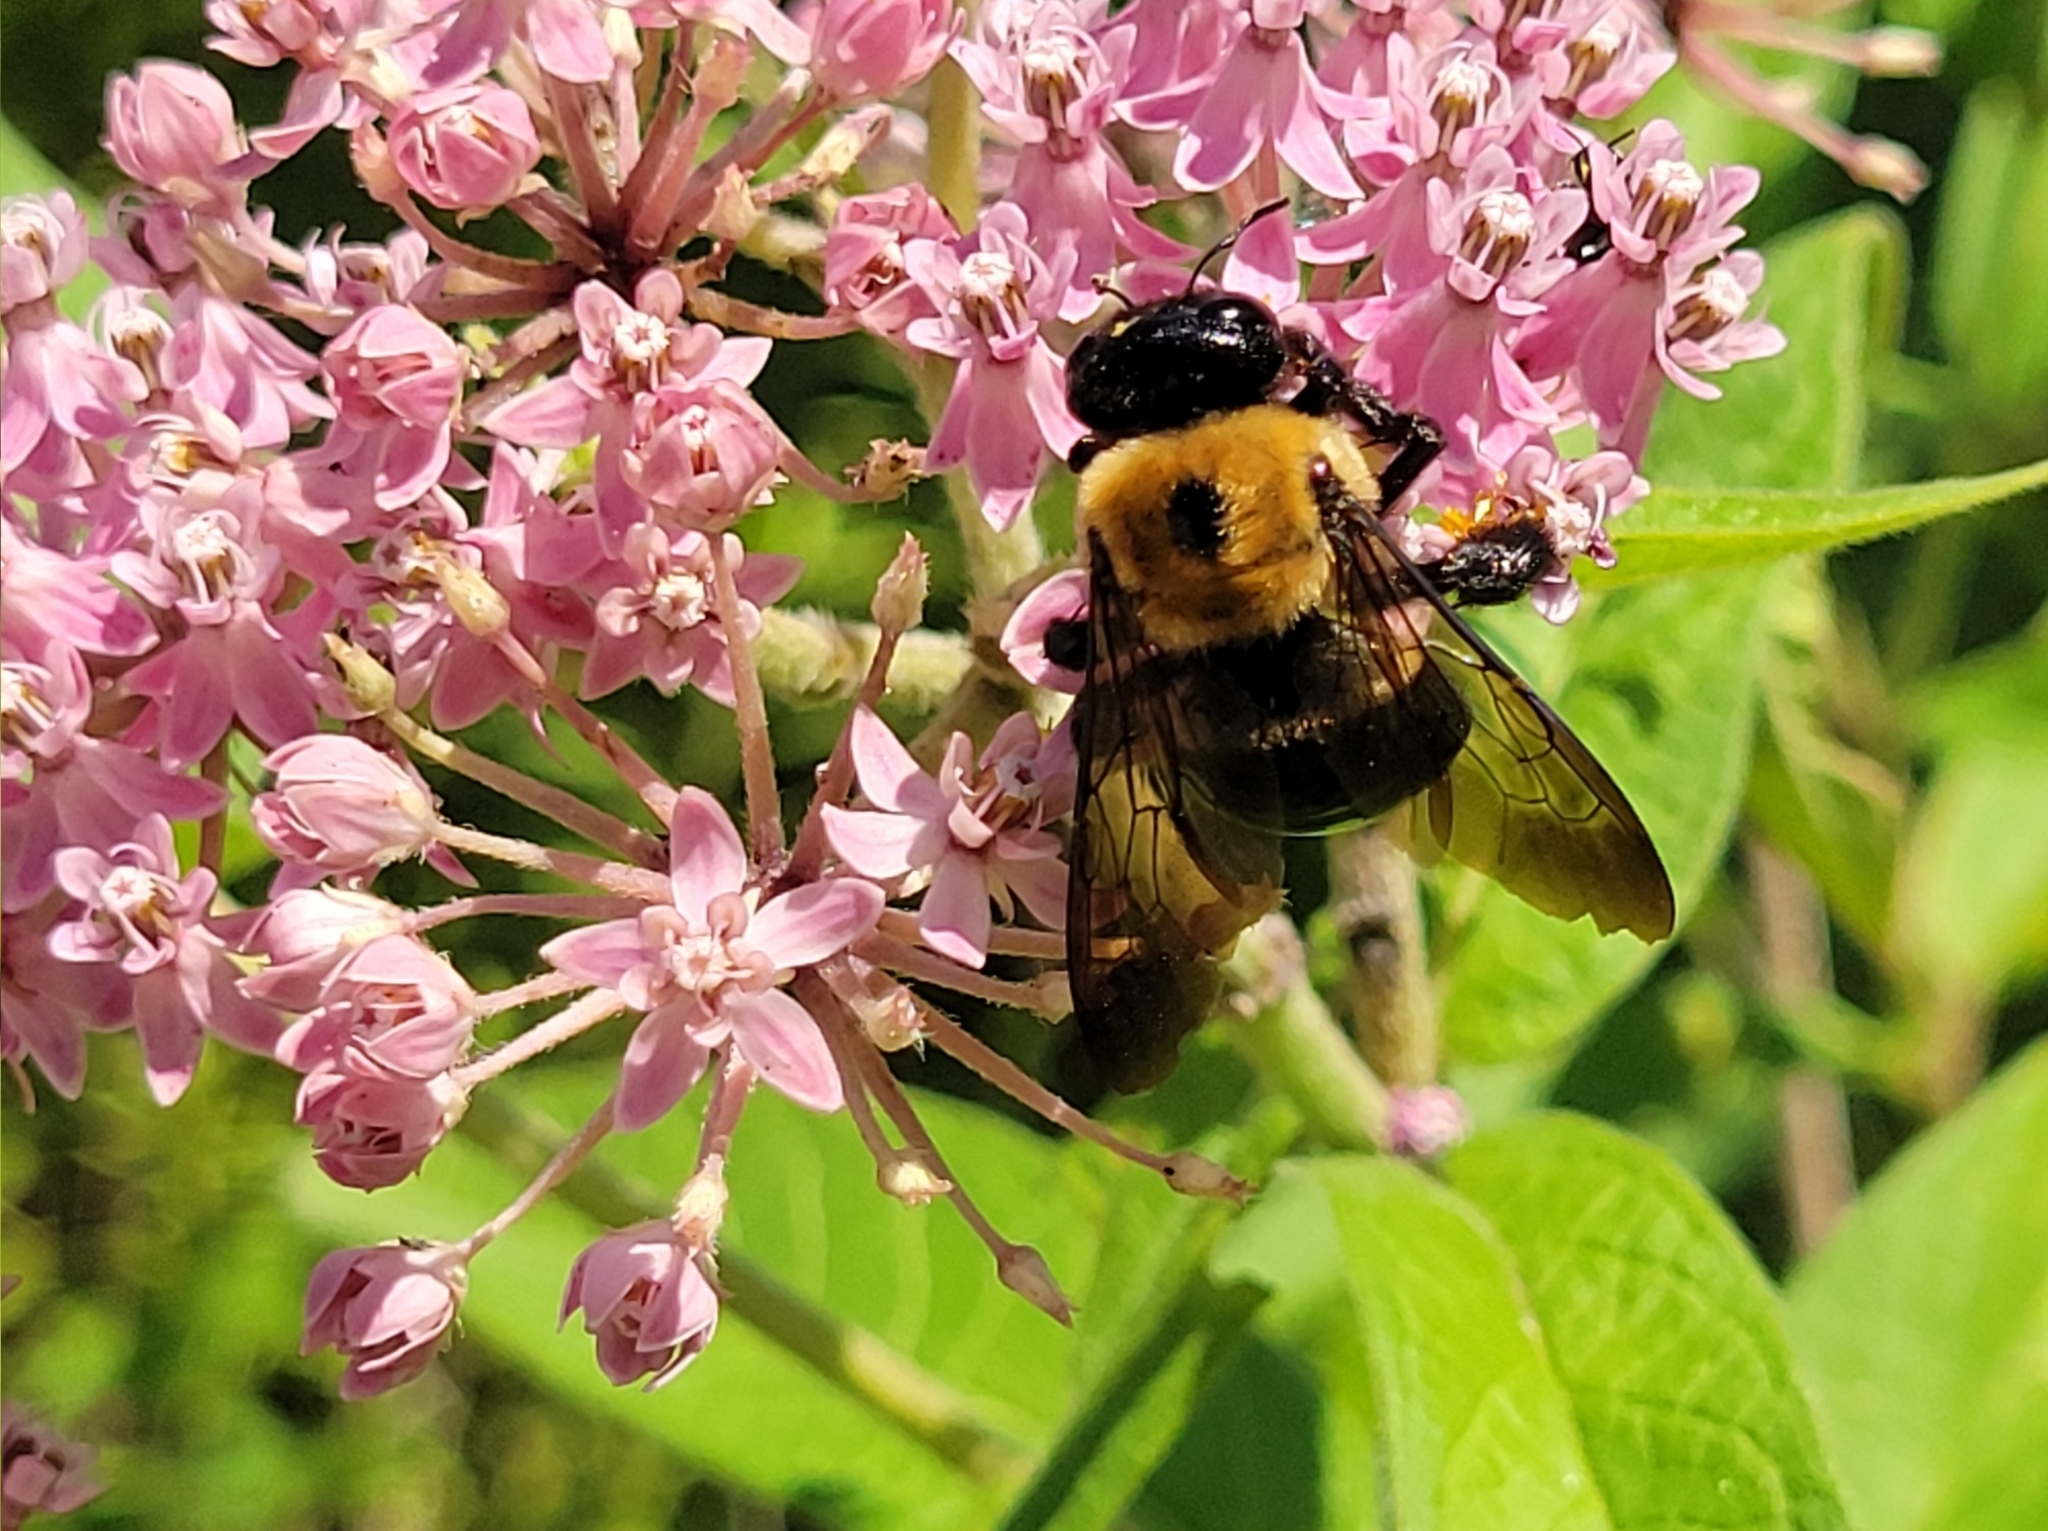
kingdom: Animalia
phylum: Arthropoda
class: Insecta
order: Hymenoptera
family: Apidae
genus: Xylocopa
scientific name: Xylocopa virginica
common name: Carpenter bee
